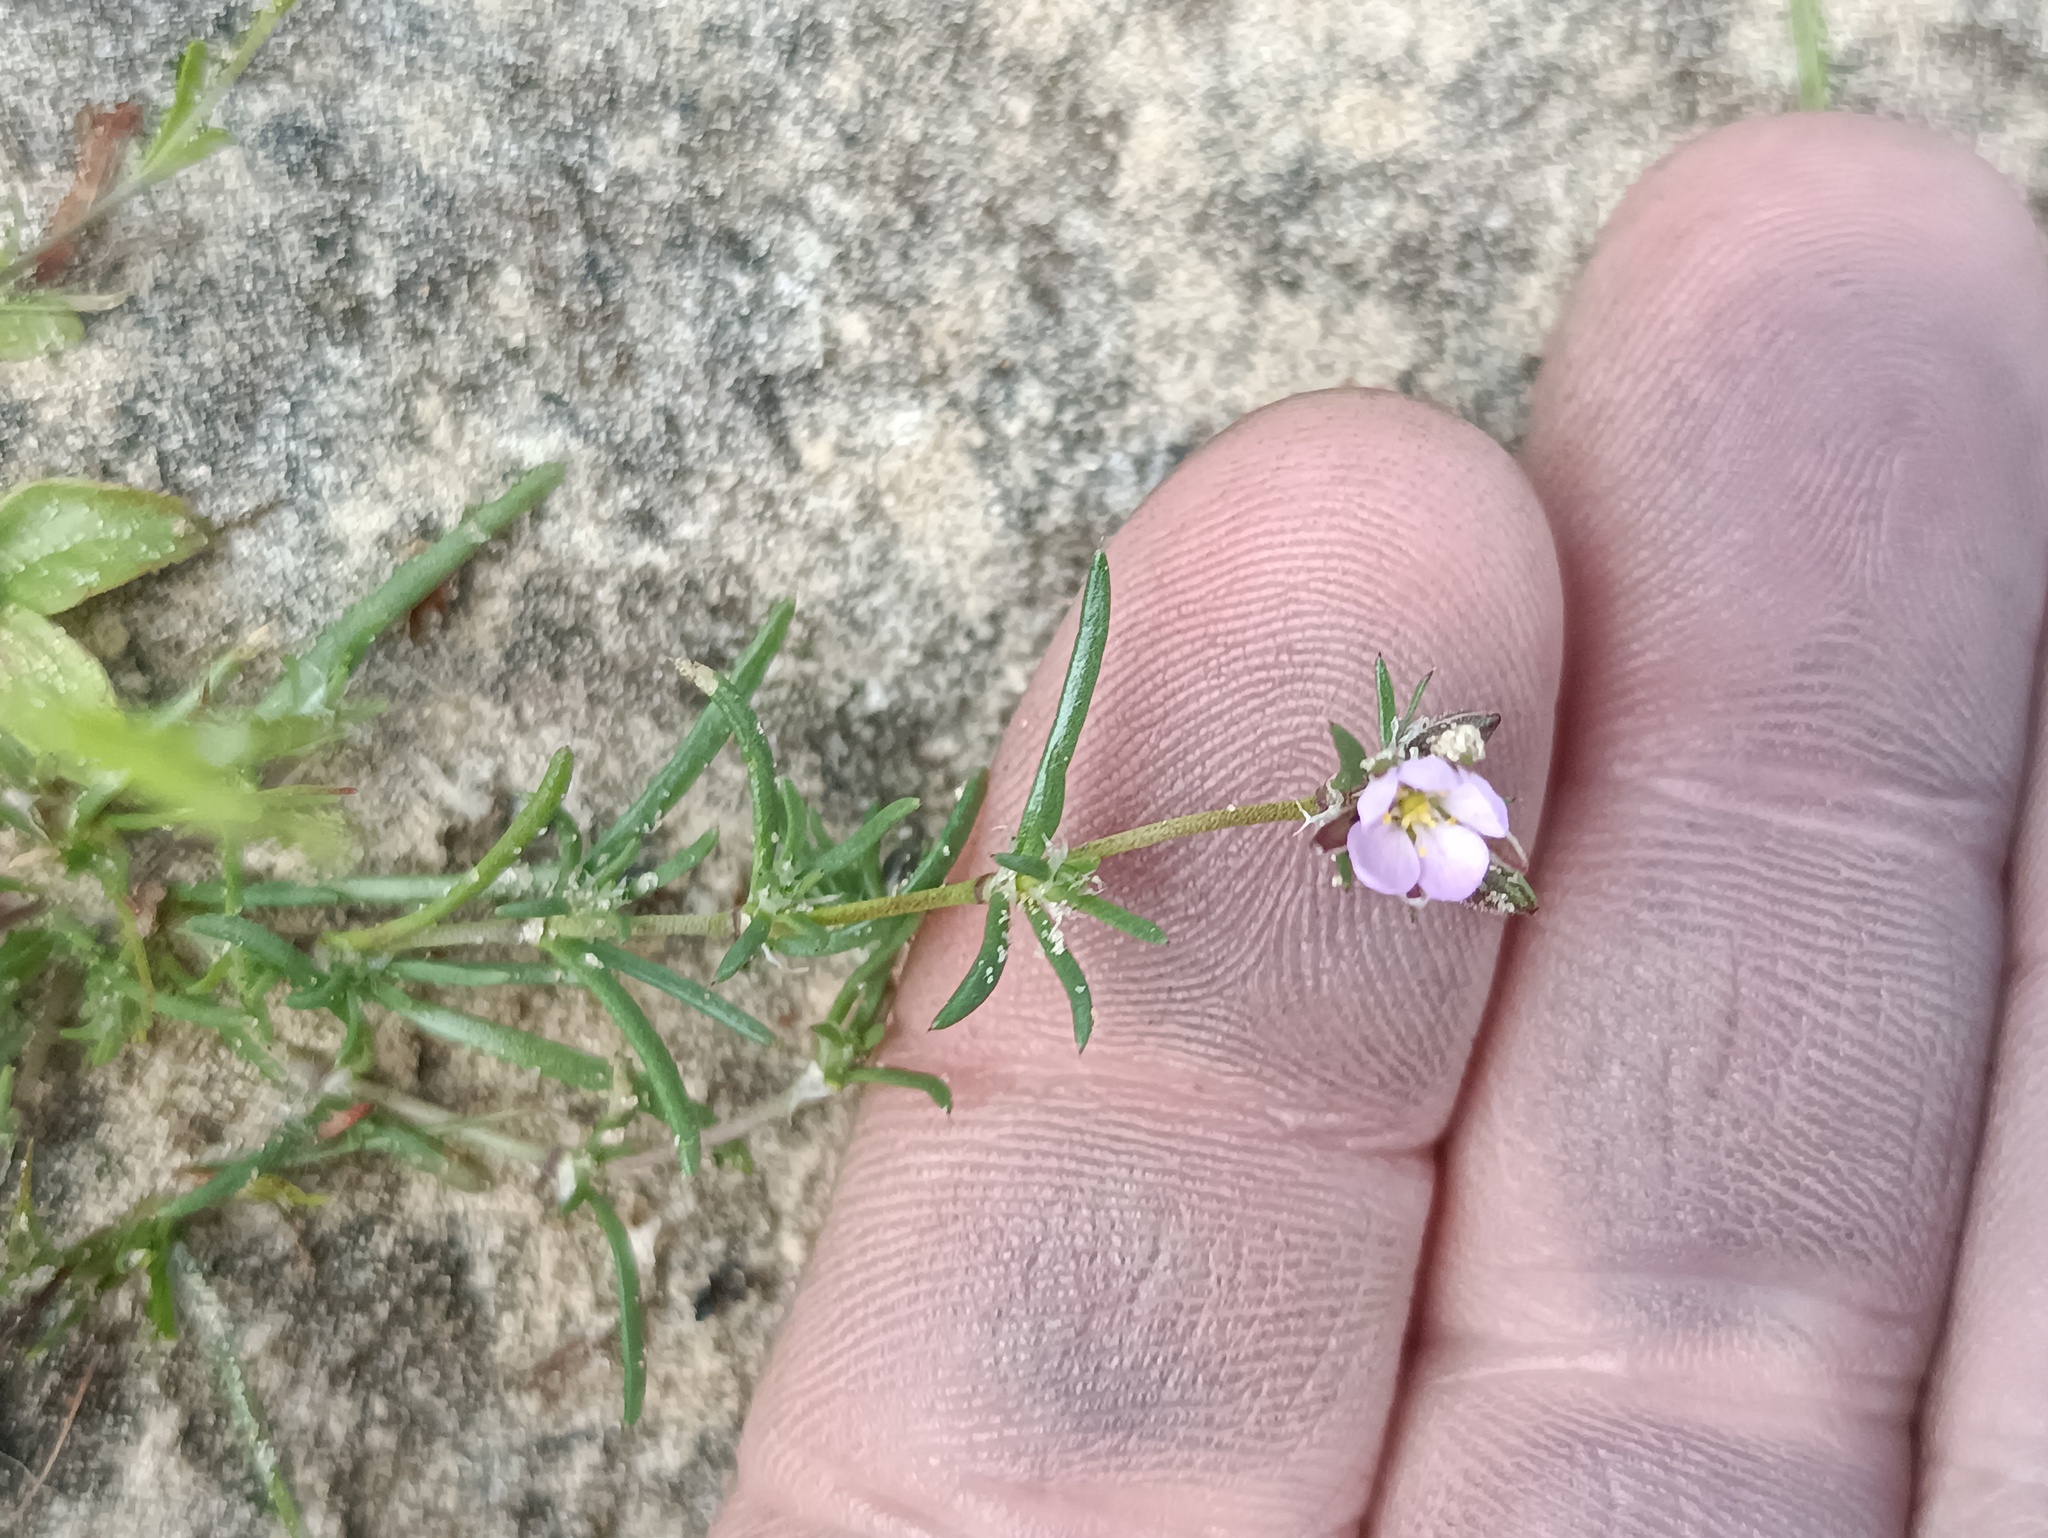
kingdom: Plantae
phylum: Tracheophyta
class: Magnoliopsida
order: Caryophyllales
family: Caryophyllaceae
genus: Spergularia
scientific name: Spergularia rubra
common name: Red sand-spurrey
